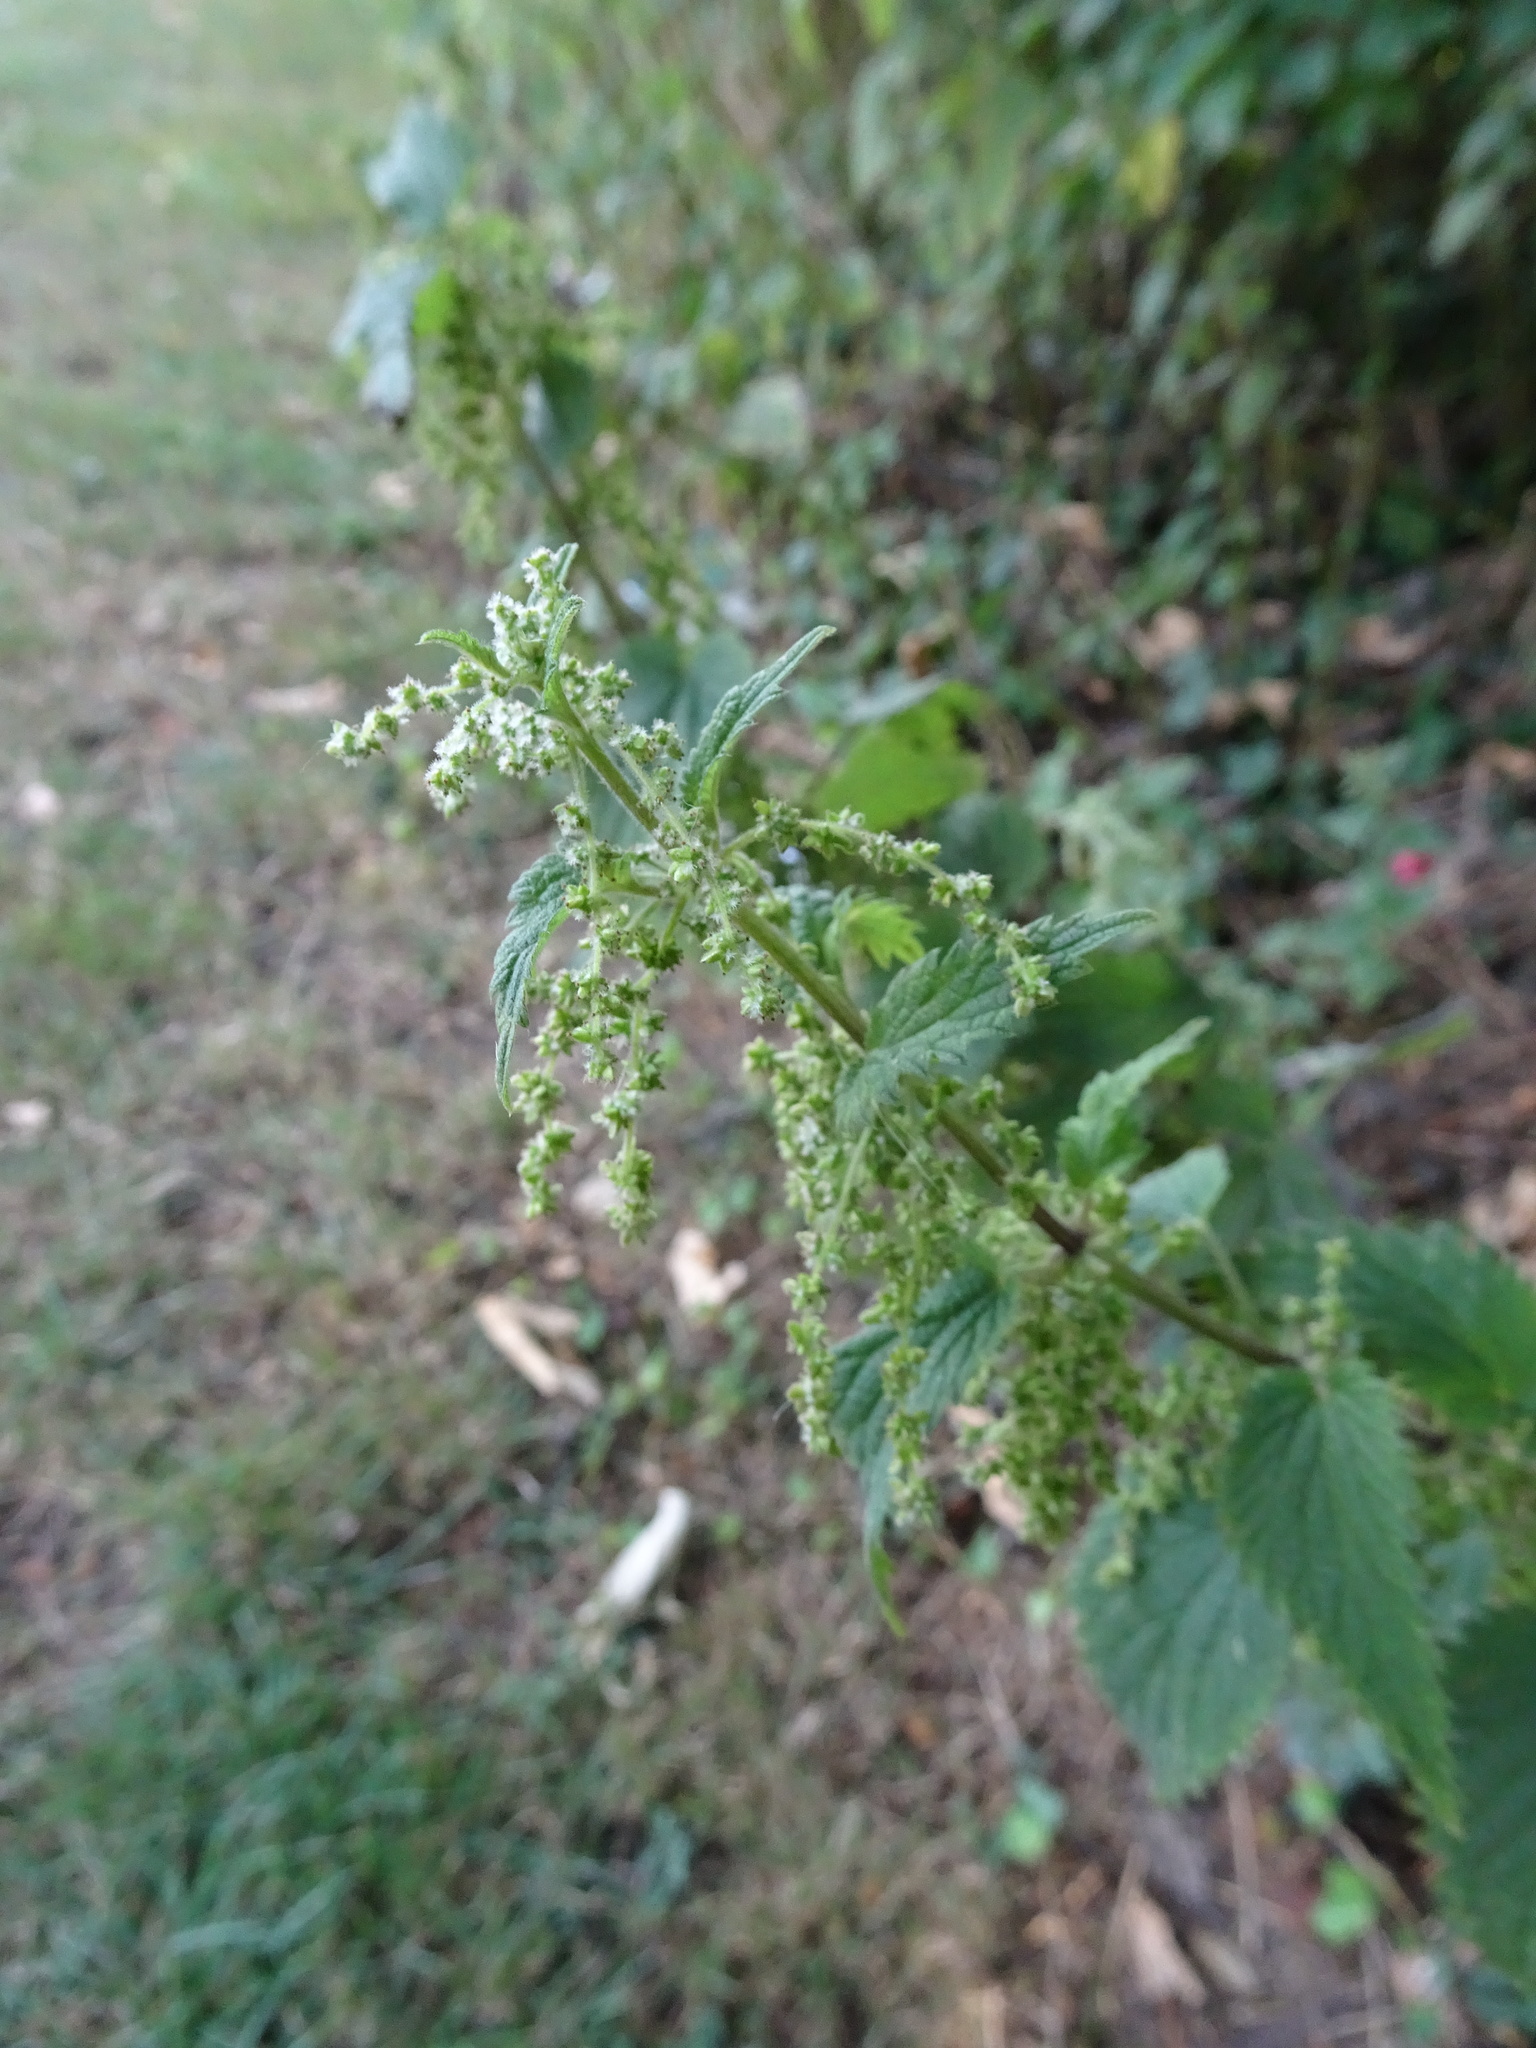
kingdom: Plantae
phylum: Tracheophyta
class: Magnoliopsida
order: Rosales
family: Urticaceae
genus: Urtica
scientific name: Urtica dioica
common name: Common nettle
